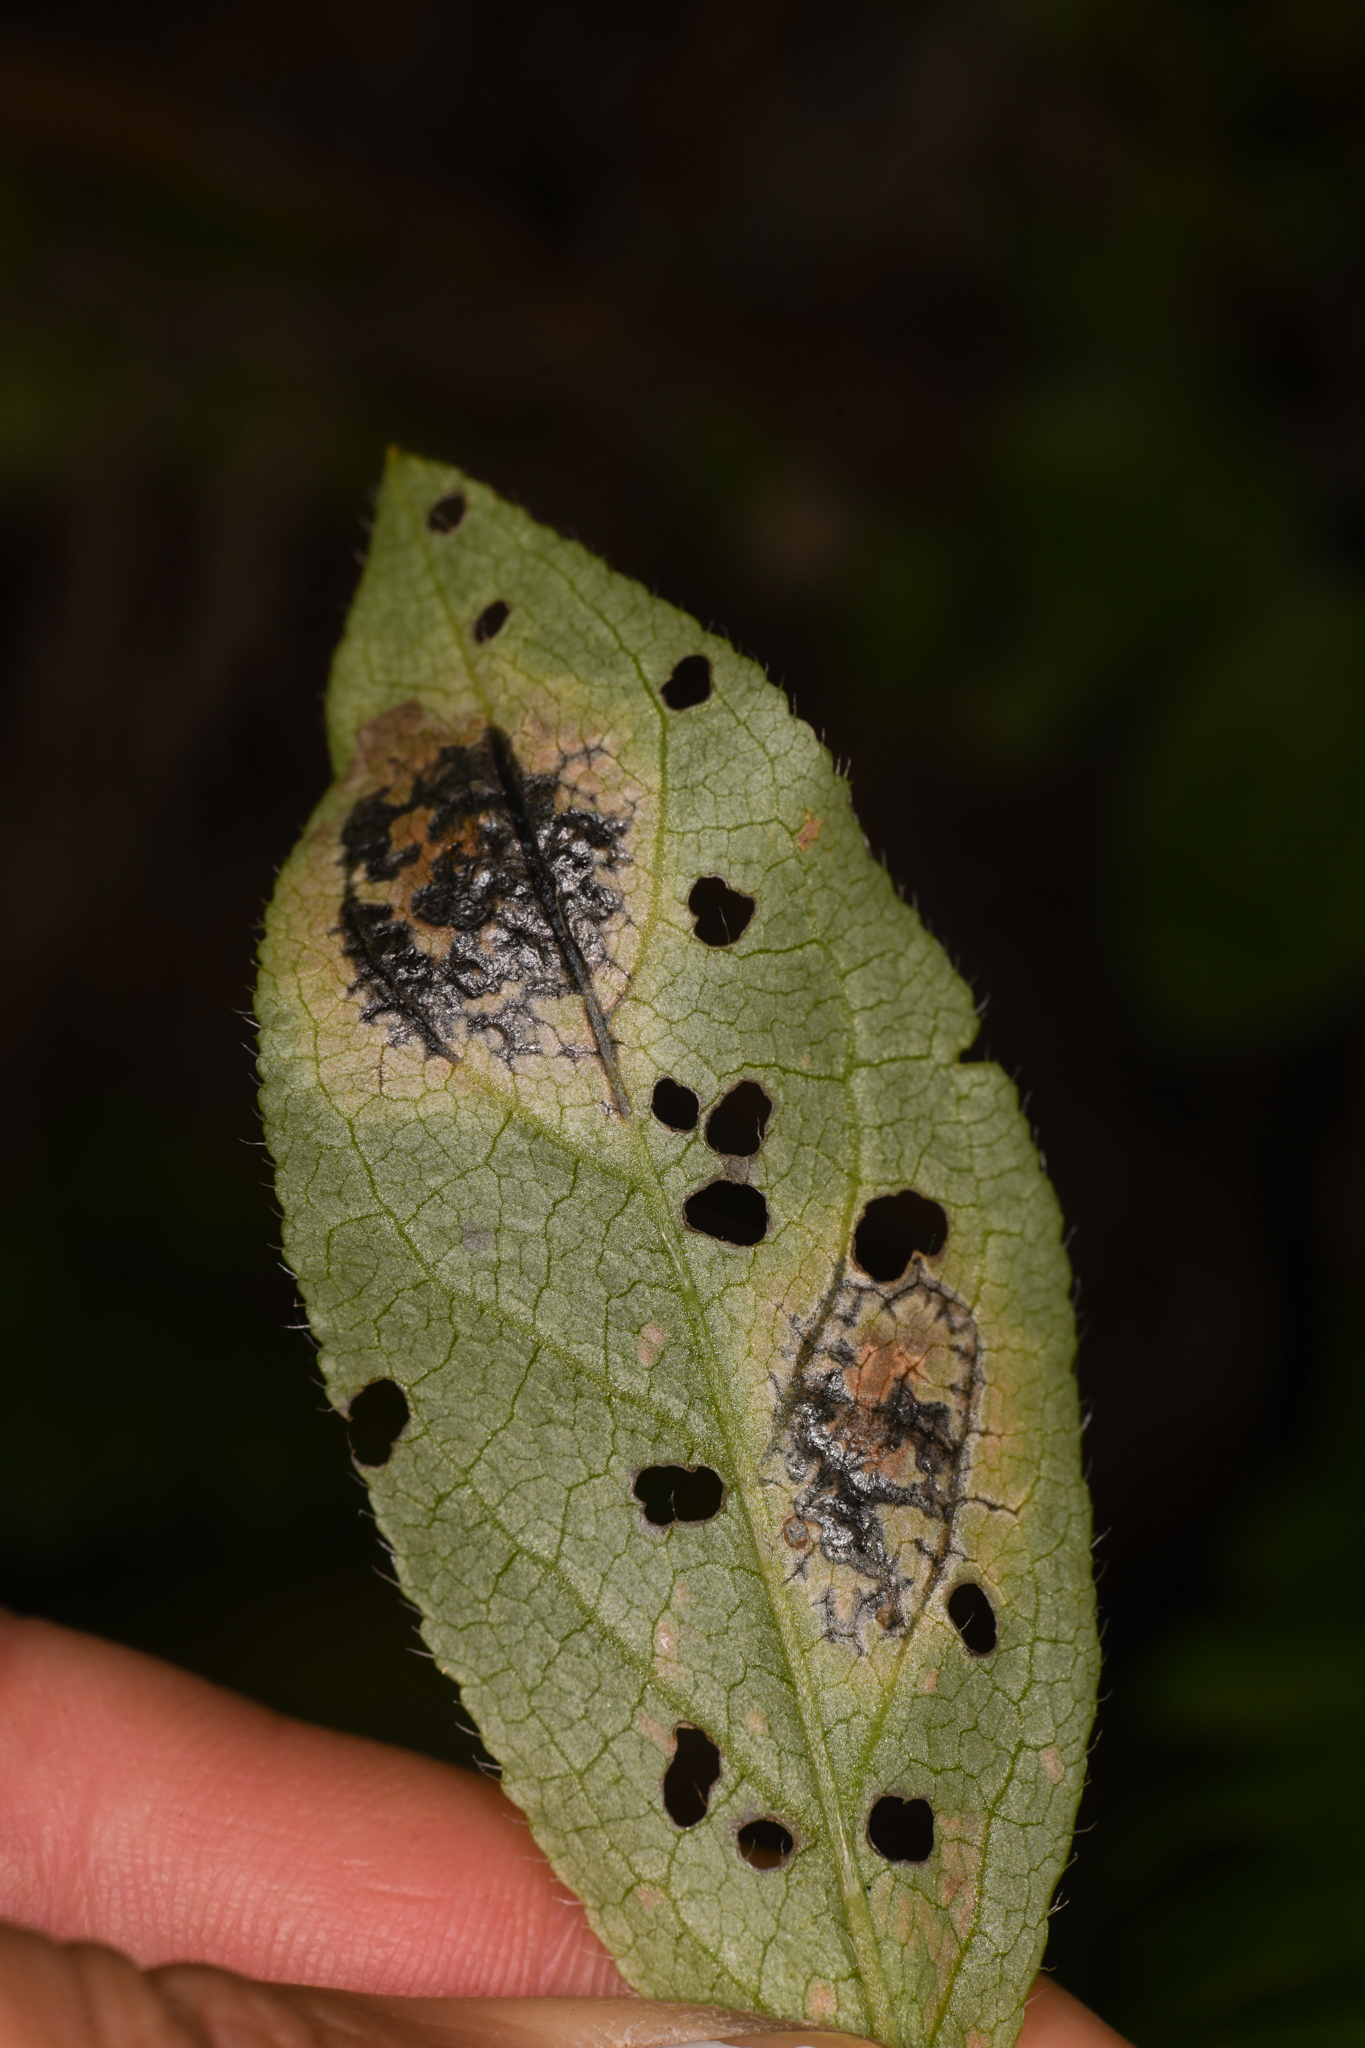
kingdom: Fungi
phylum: Ascomycota
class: Leotiomycetes
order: Rhytismatales
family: Rhytismataceae
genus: Rhytisma
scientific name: Rhytisma
